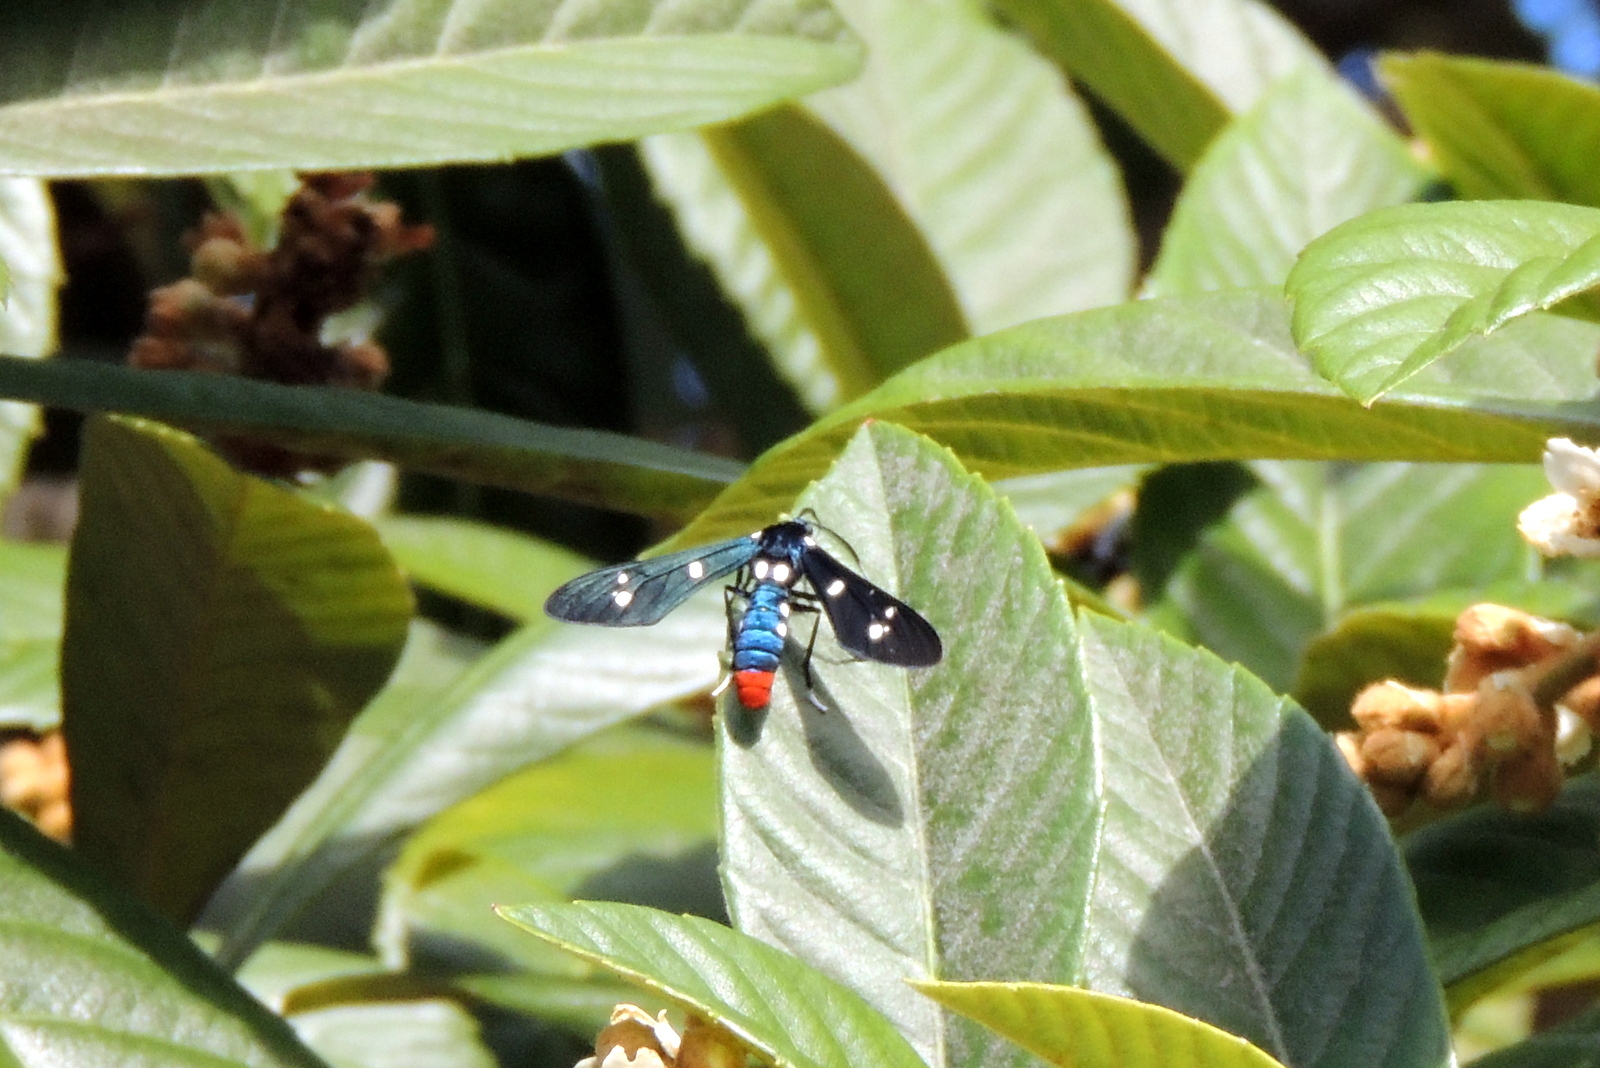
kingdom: Animalia
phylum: Arthropoda
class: Insecta
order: Lepidoptera
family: Erebidae
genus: Syntomeida
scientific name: Syntomeida epilais
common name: Polka-dot wasp moth
